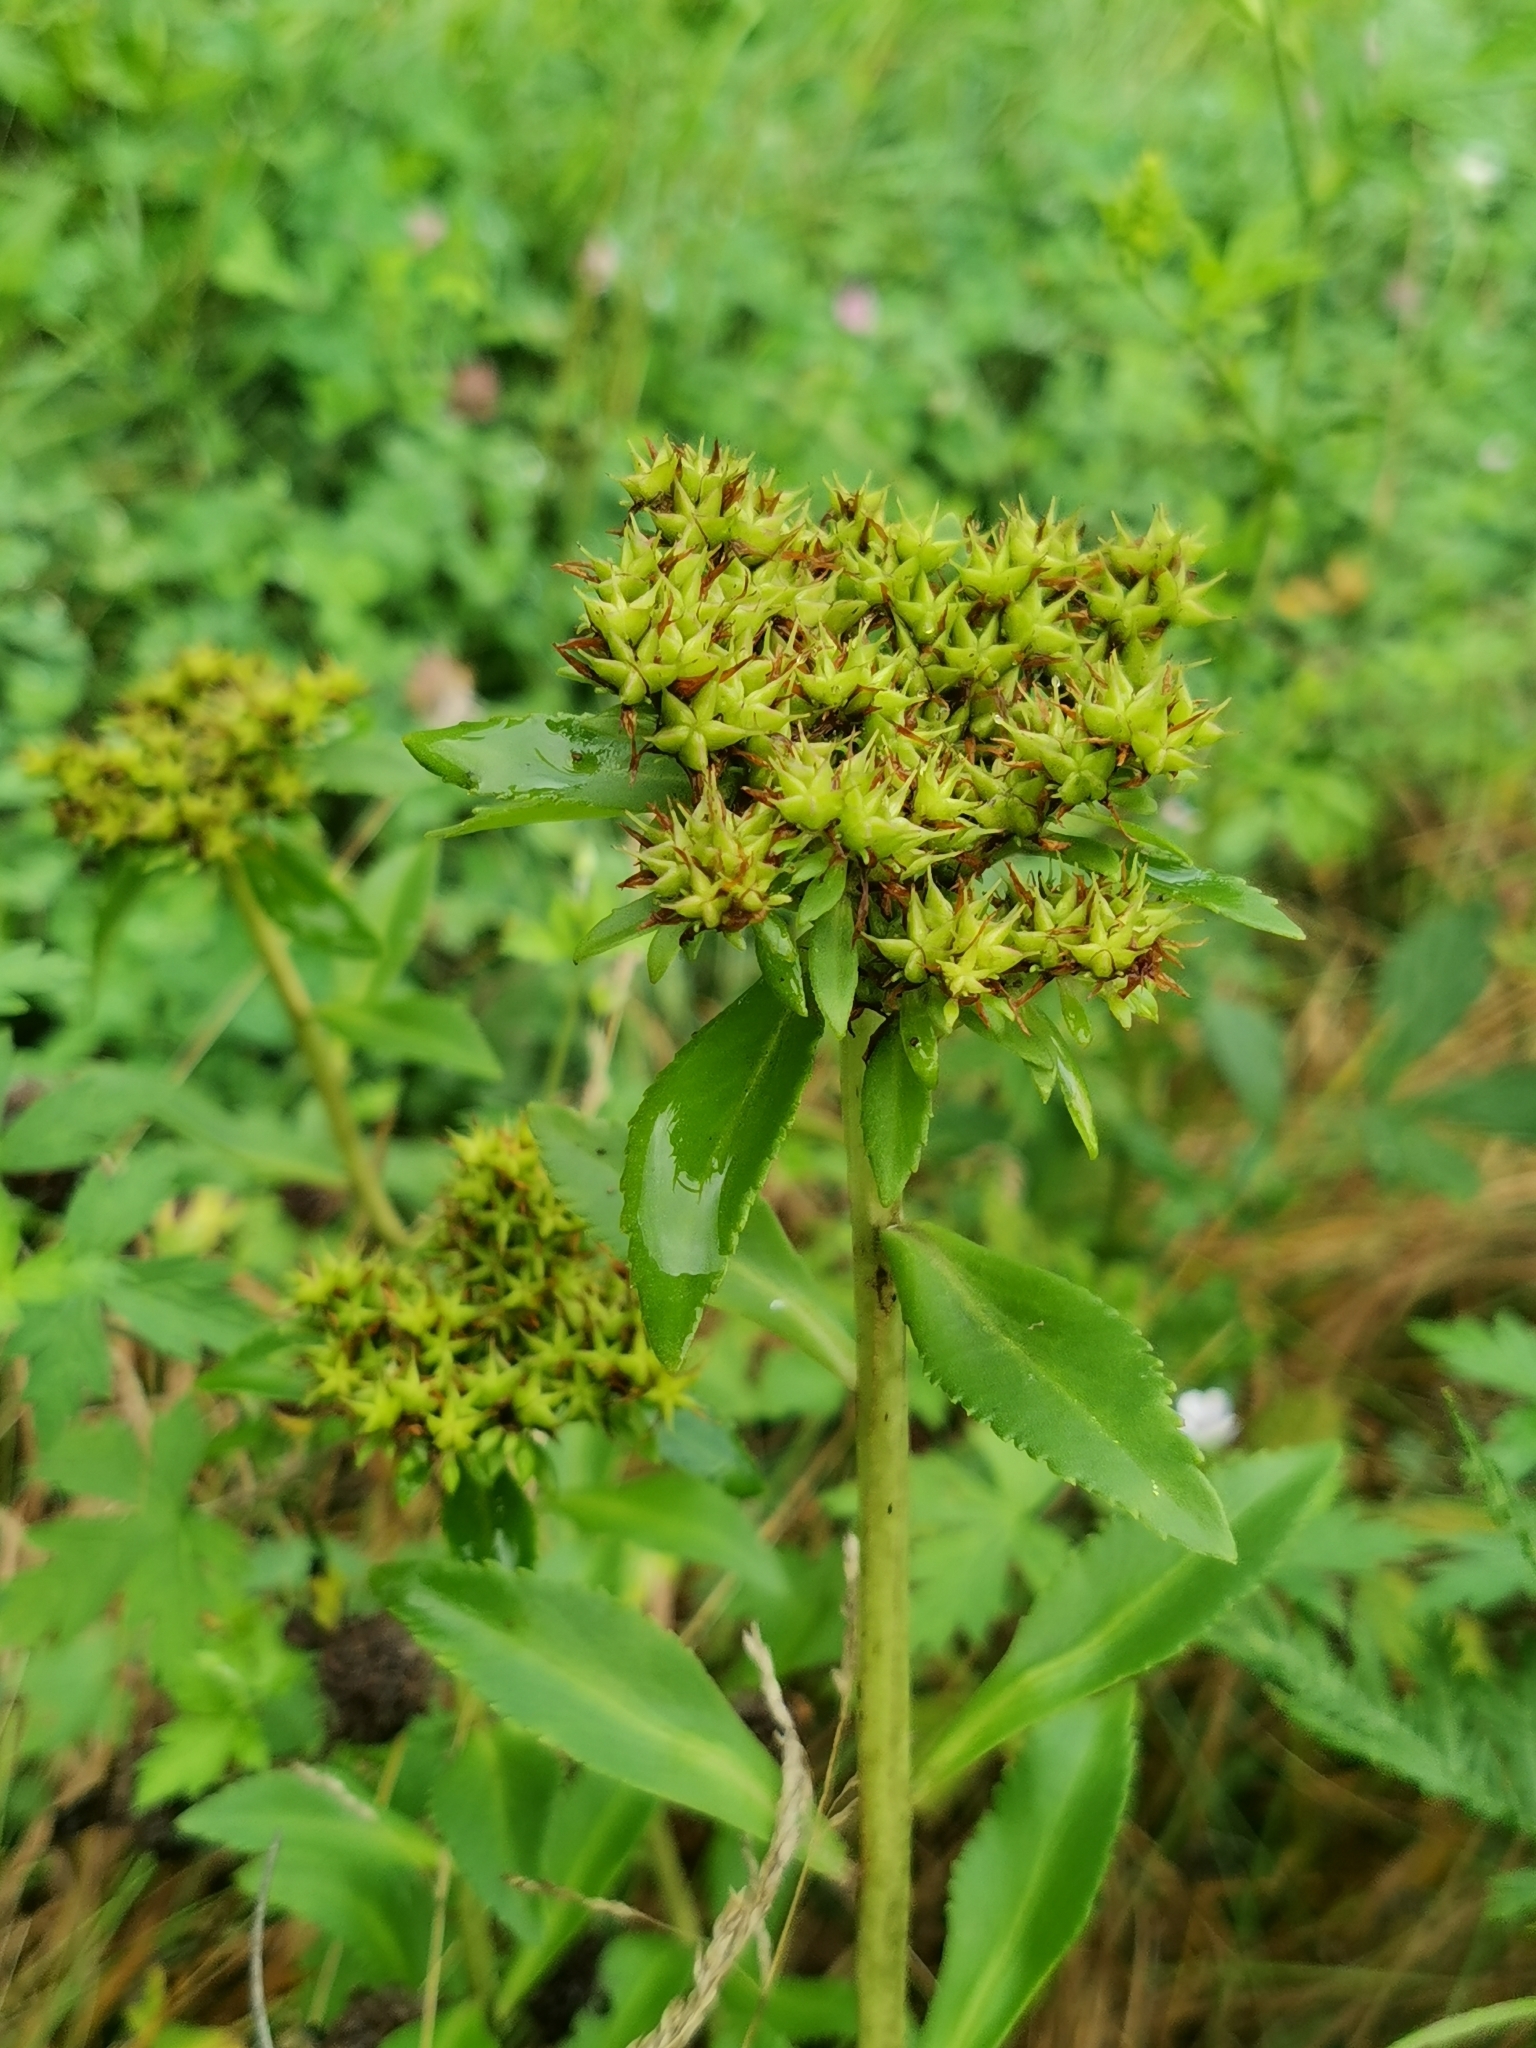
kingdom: Plantae
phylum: Tracheophyta
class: Magnoliopsida
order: Saxifragales
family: Crassulaceae
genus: Phedimus
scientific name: Phedimus aizoon
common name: Orpin aizoon
